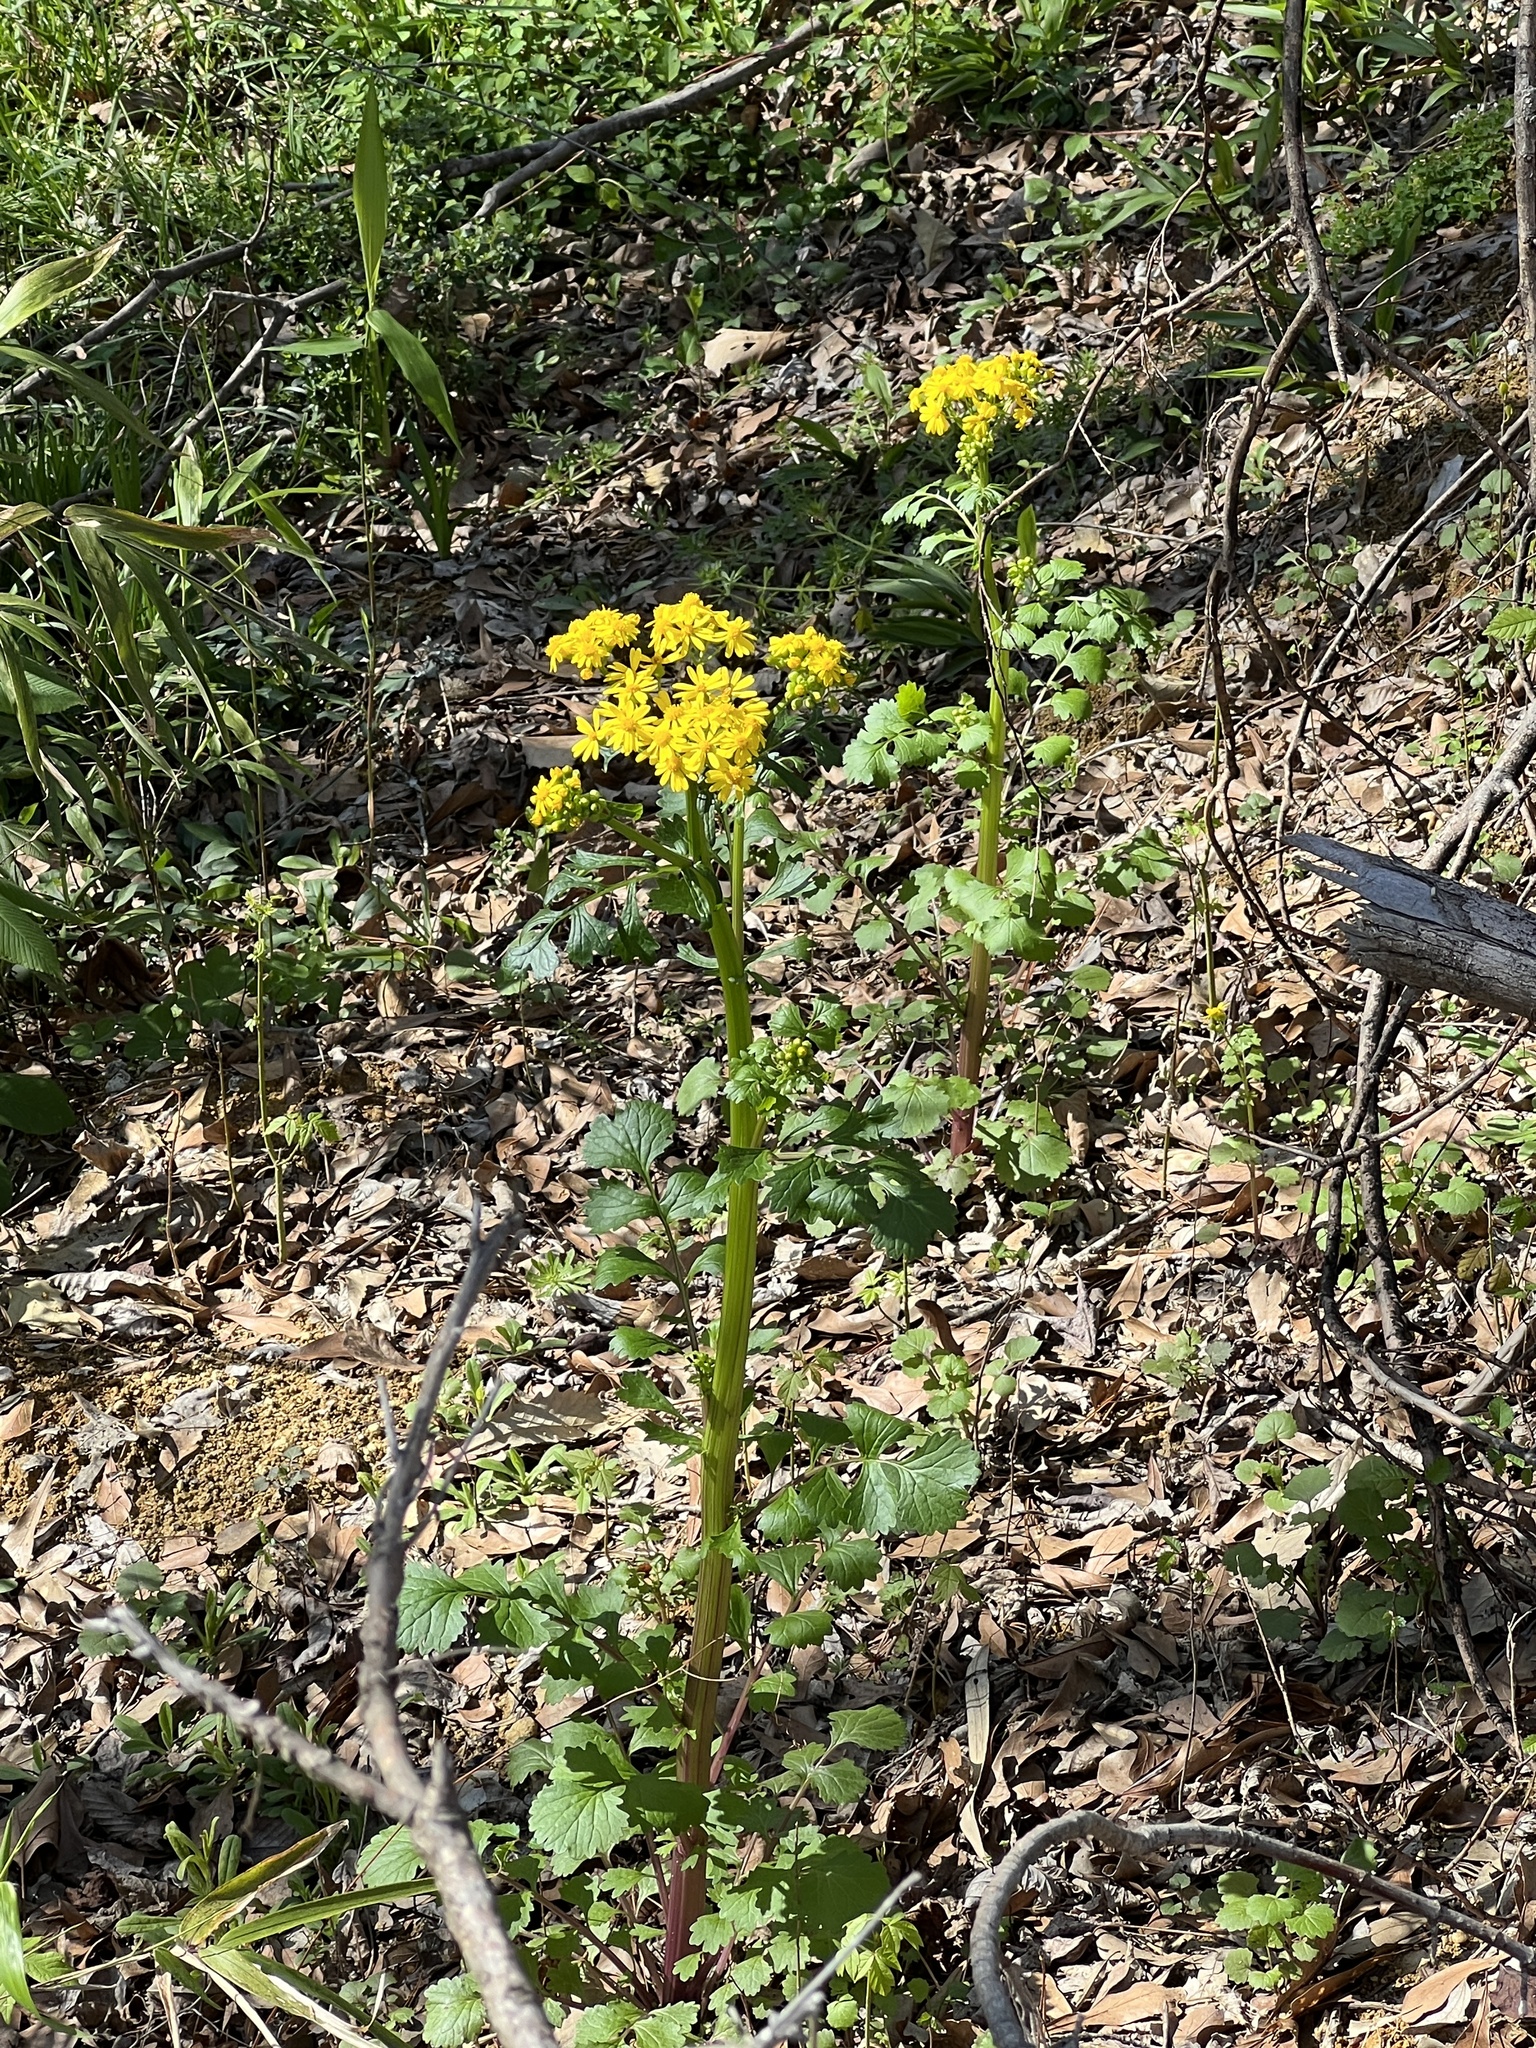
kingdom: Plantae
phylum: Tracheophyta
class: Magnoliopsida
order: Asterales
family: Asteraceae
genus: Packera
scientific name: Packera glabella
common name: Butterweed
